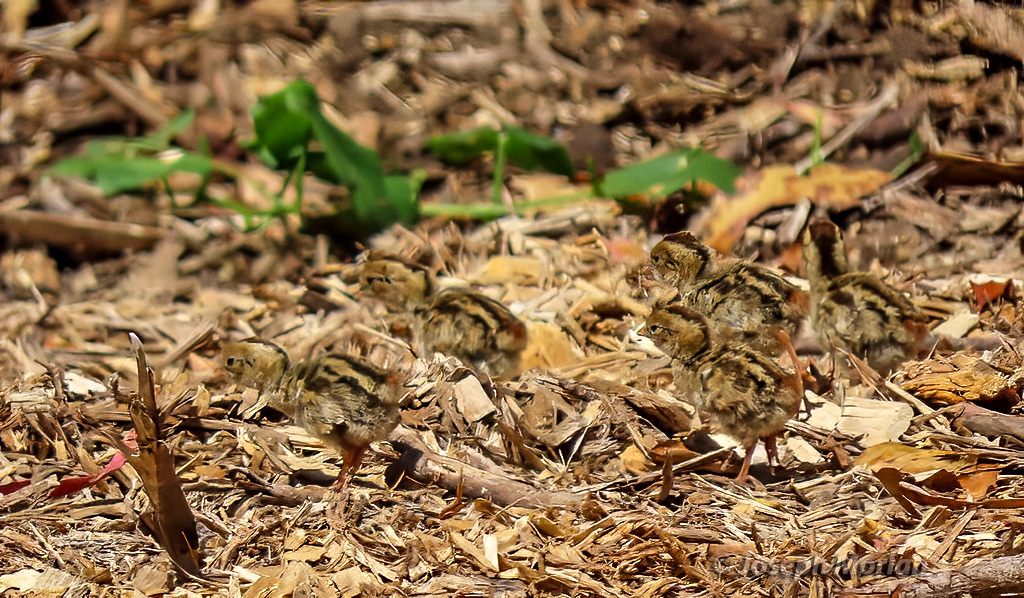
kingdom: Animalia
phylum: Chordata
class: Aves
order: Galliformes
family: Odontophoridae
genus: Callipepla
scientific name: Callipepla californica
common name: California quail
